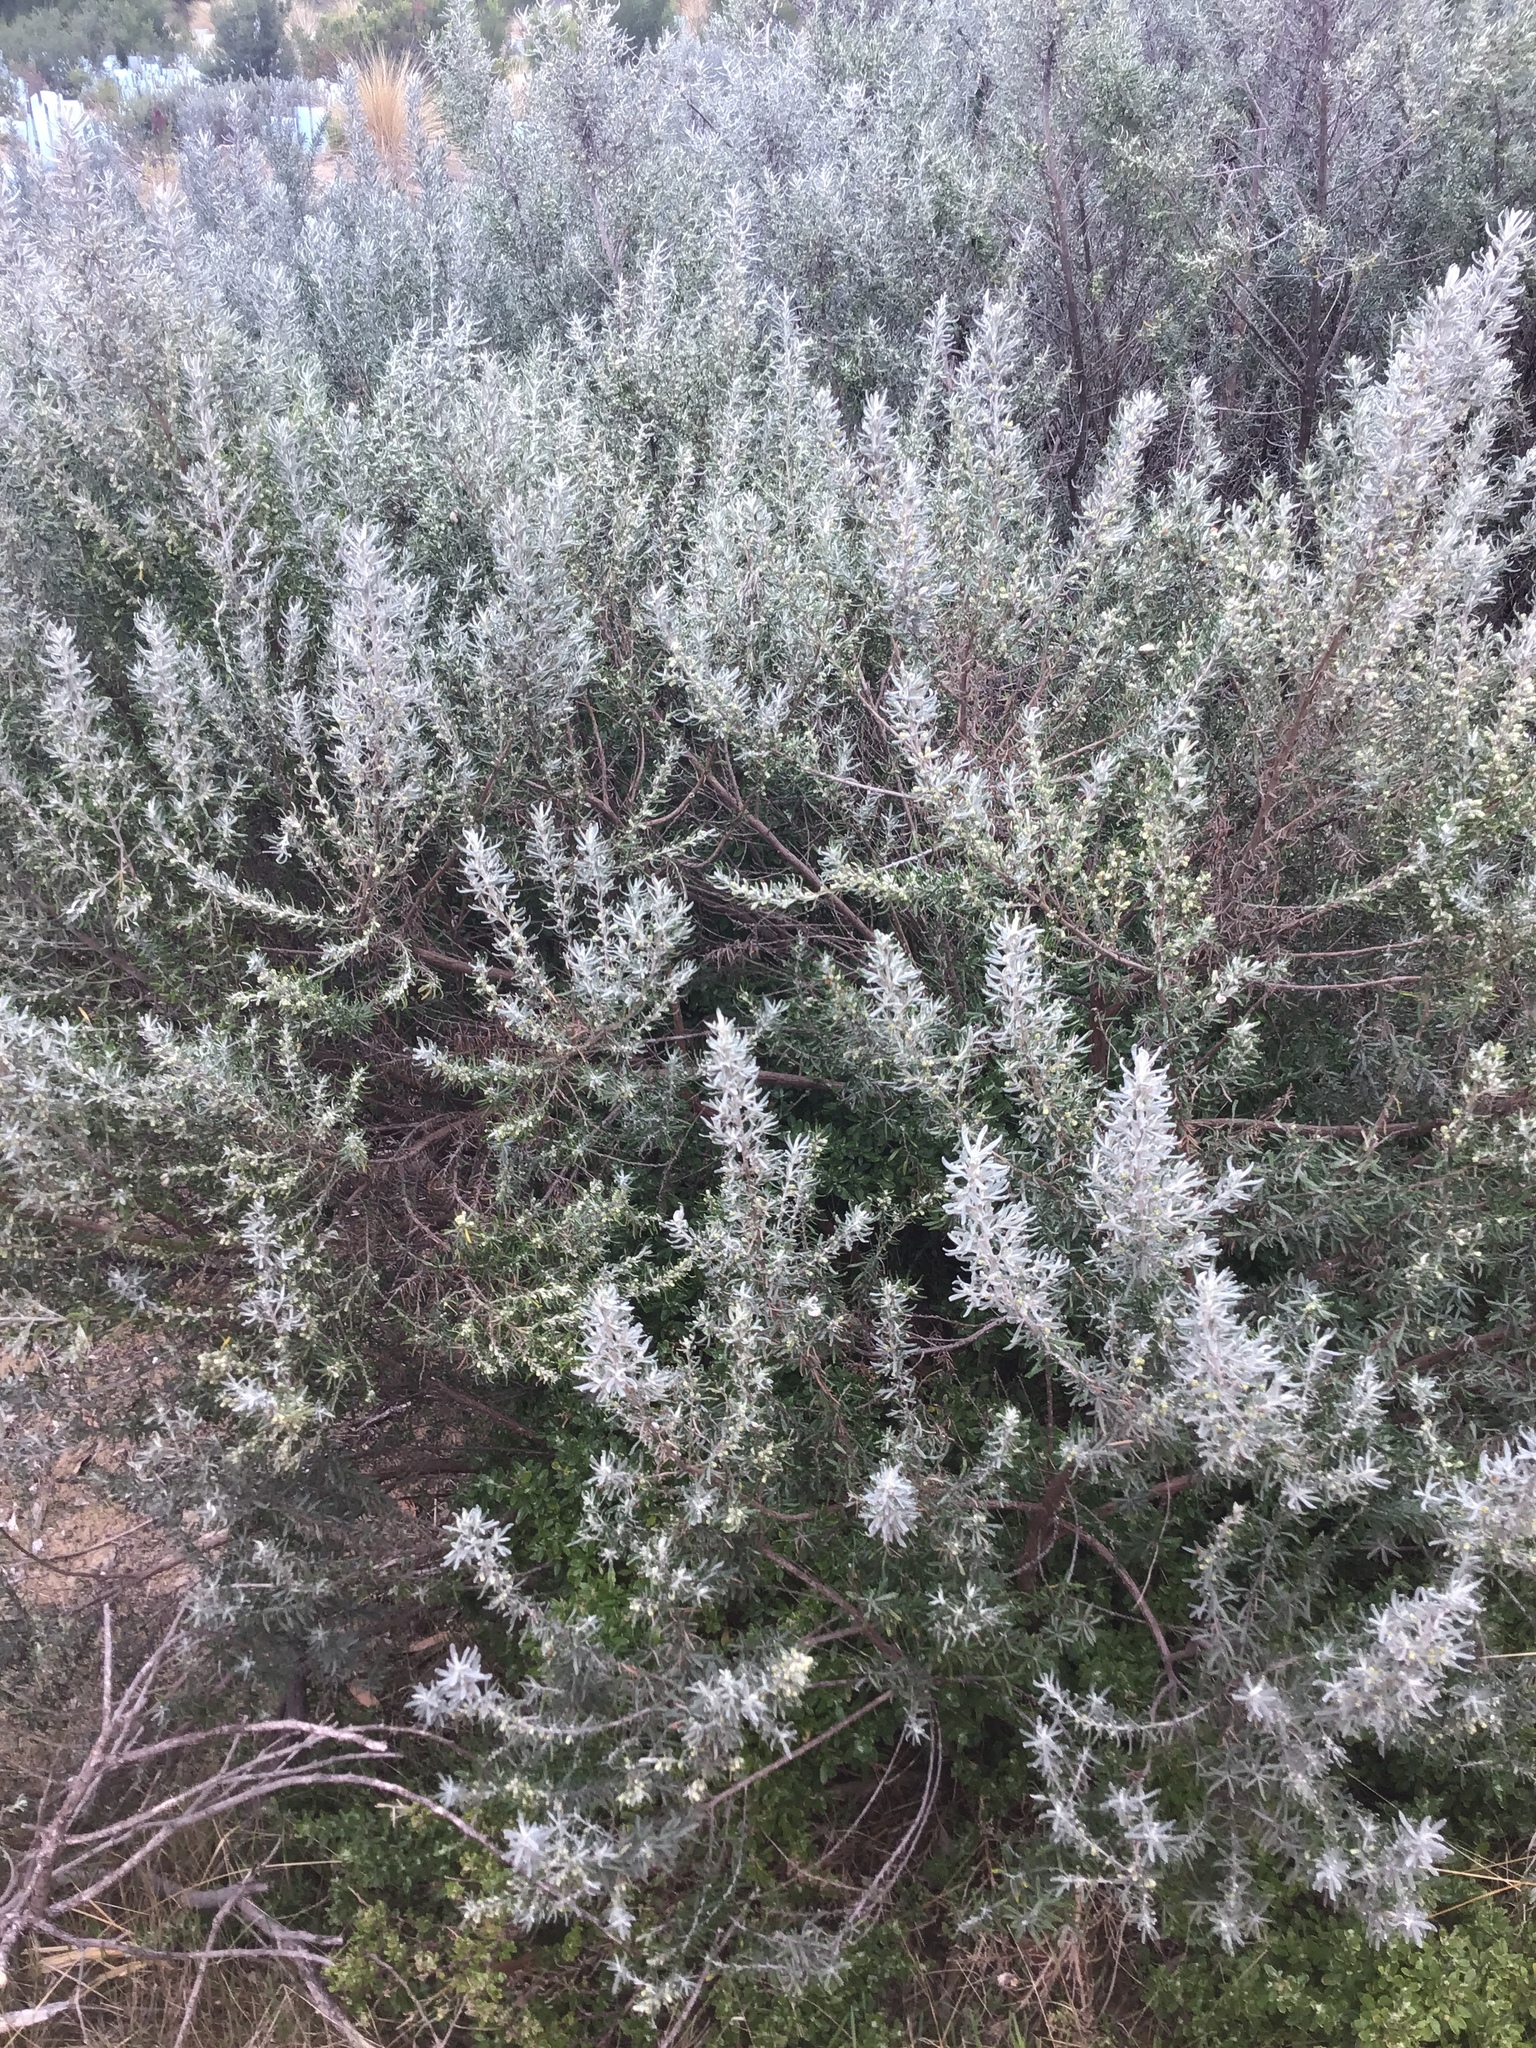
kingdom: Plantae
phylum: Tracheophyta
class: Magnoliopsida
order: Asterales
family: Asteraceae
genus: Olearia
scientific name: Olearia axillaris
